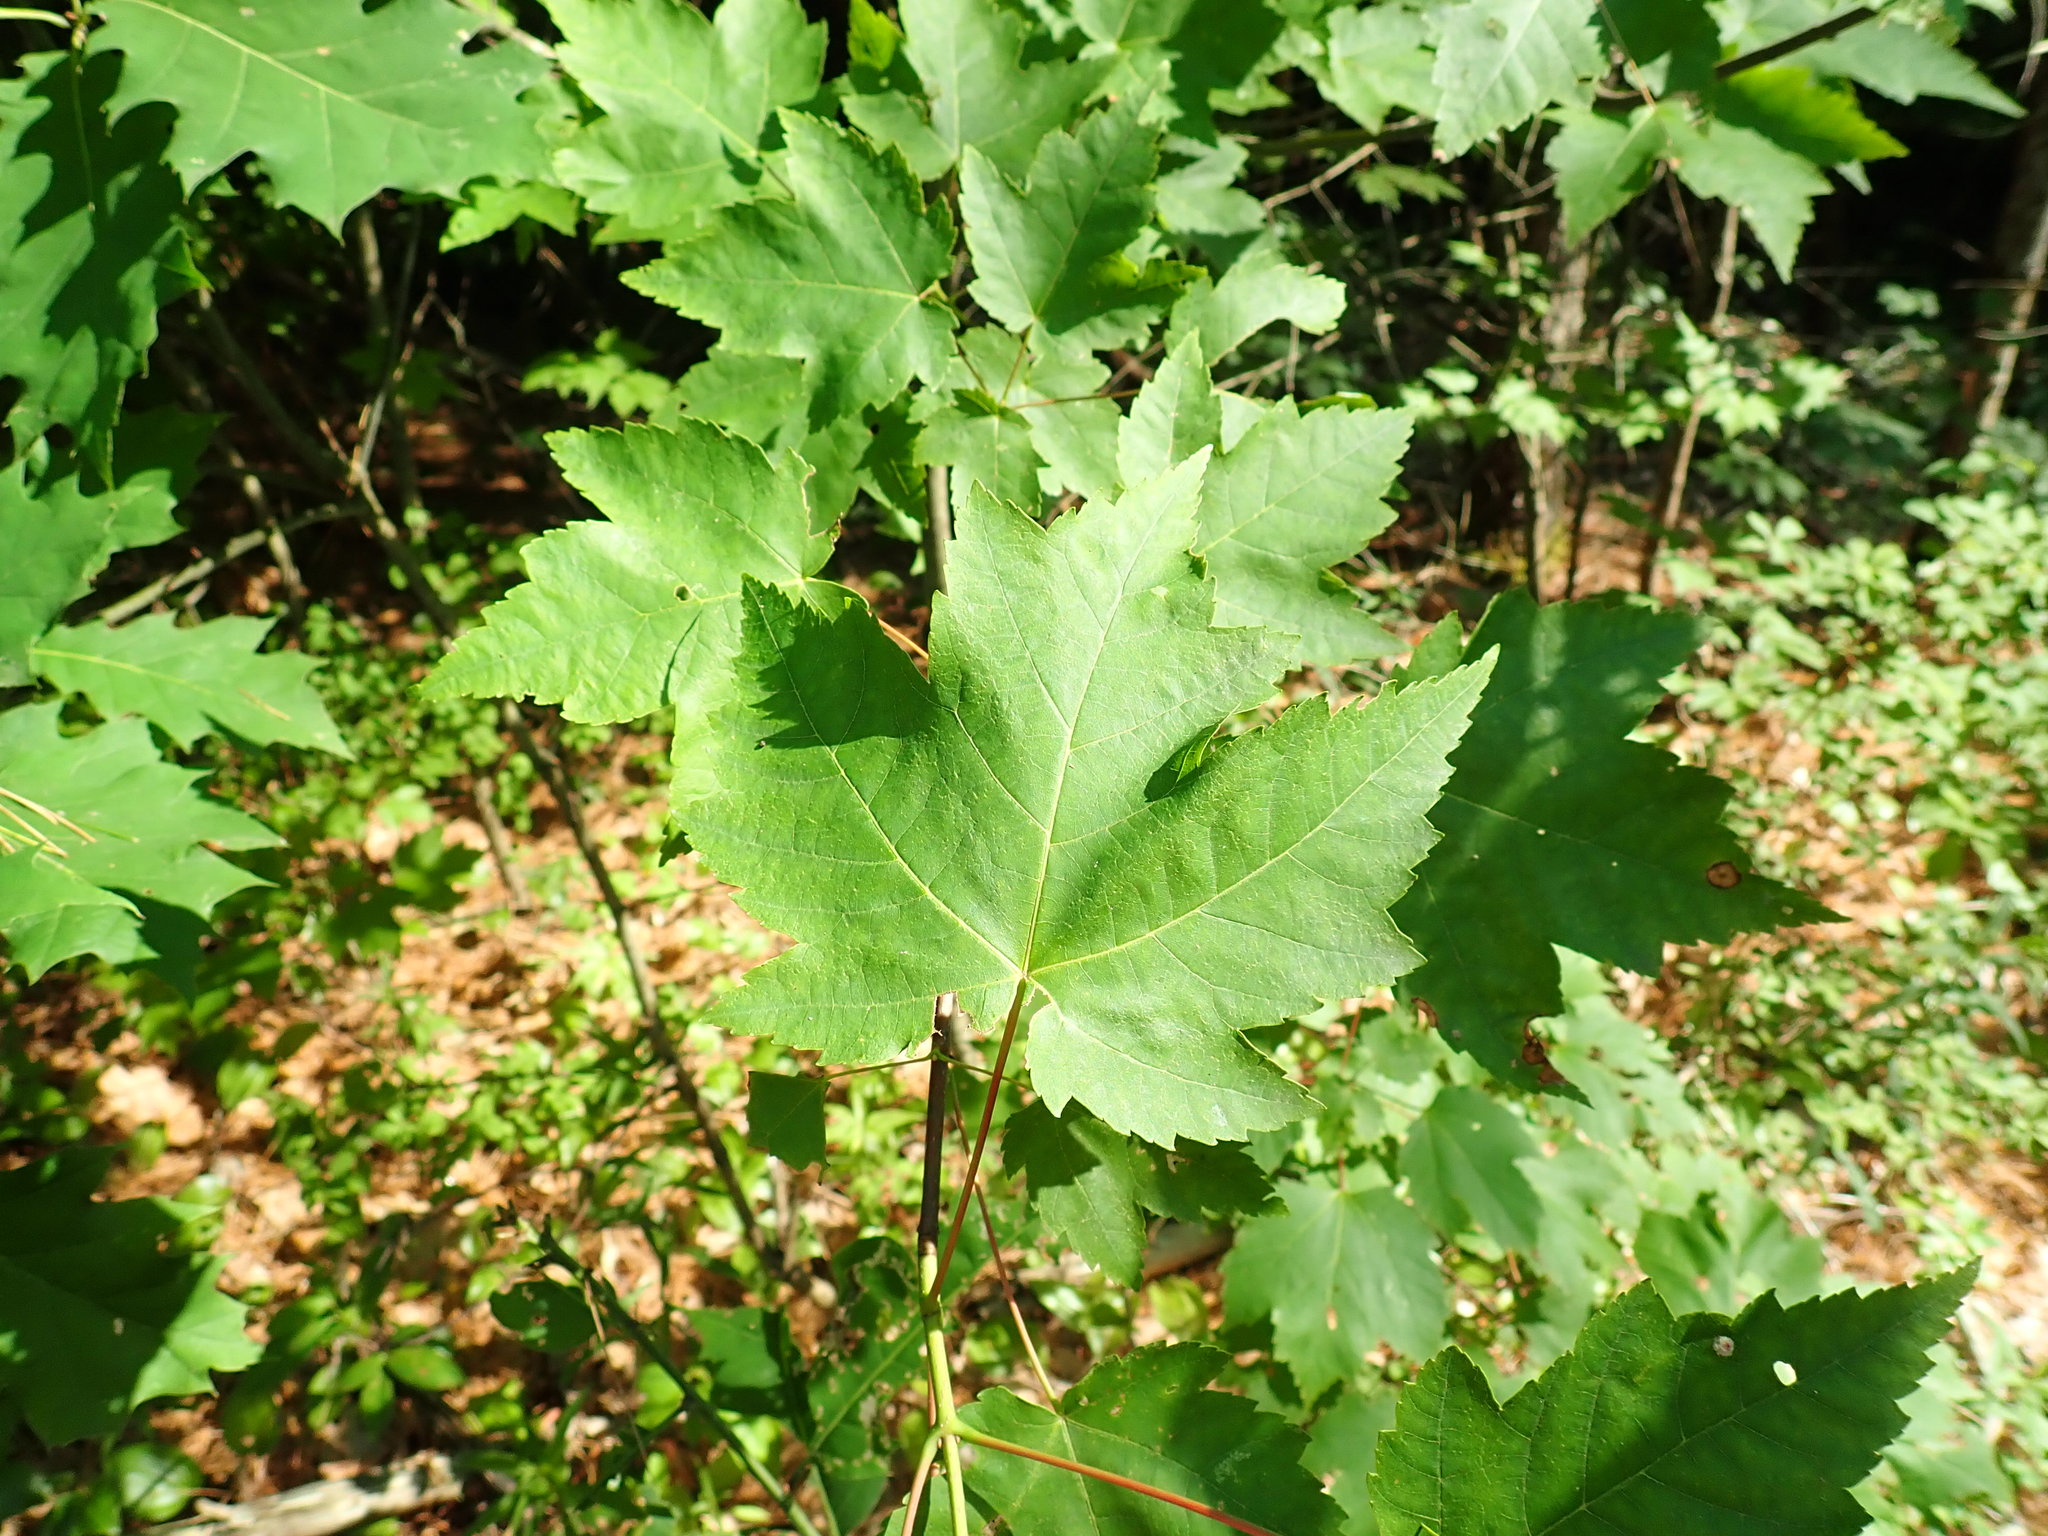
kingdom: Plantae
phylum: Tracheophyta
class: Magnoliopsida
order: Sapindales
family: Sapindaceae
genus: Acer
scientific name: Acer rubrum
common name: Red maple
